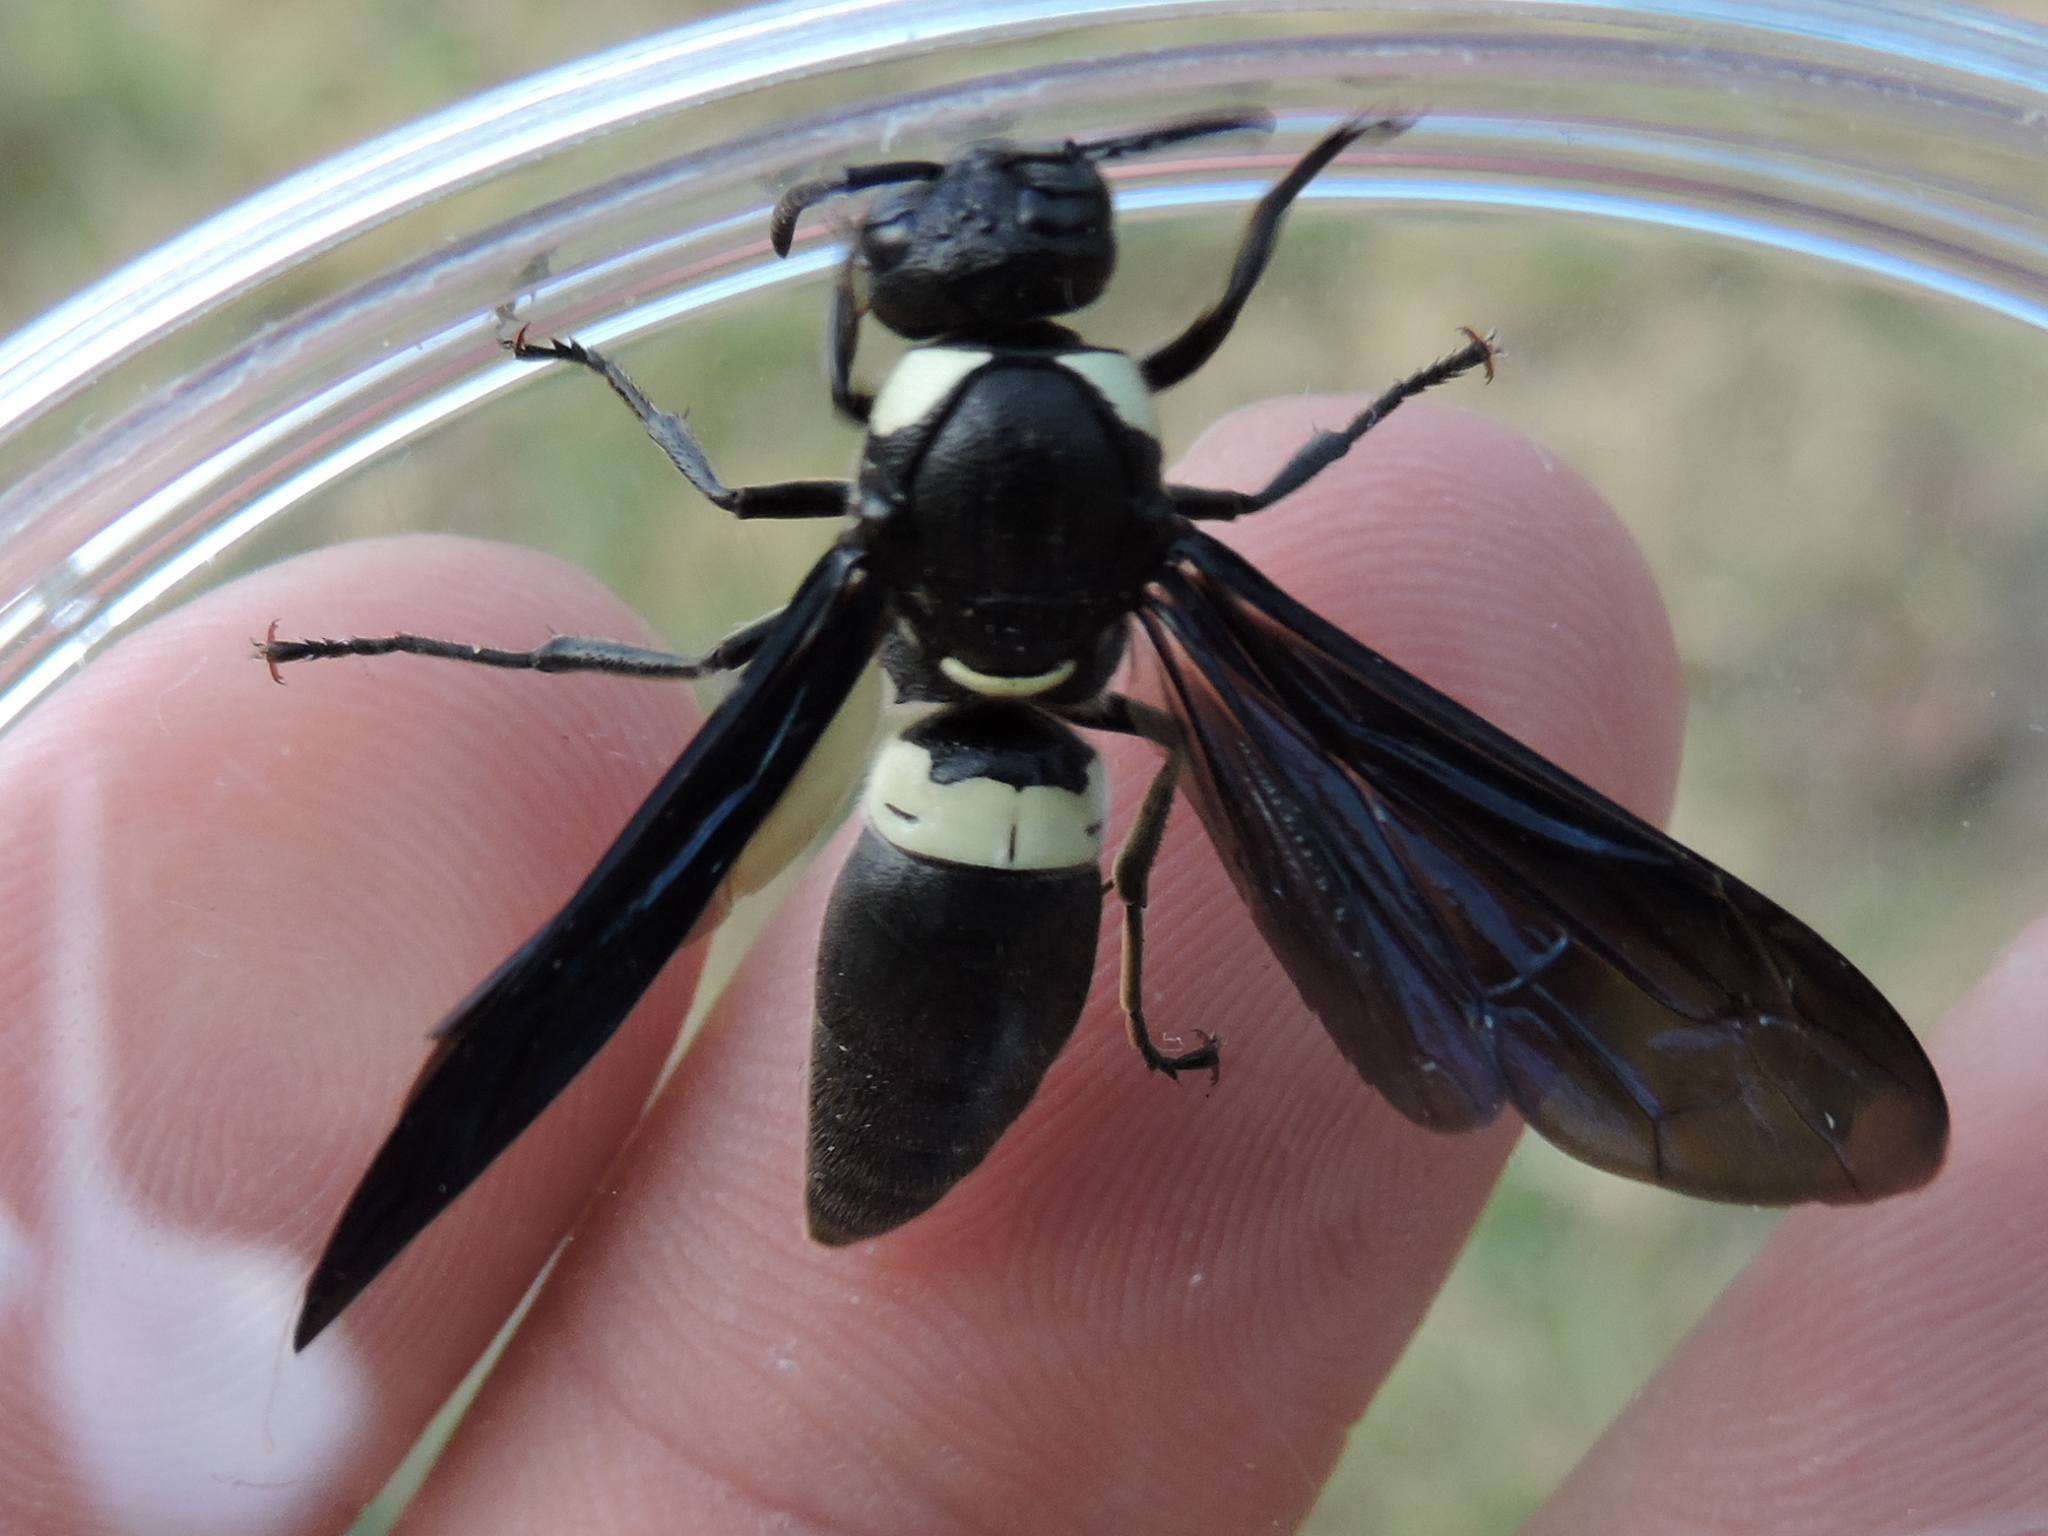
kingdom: Animalia
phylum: Arthropoda
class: Insecta
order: Hymenoptera
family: Eumenidae
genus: Monobia
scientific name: Monobia quadridens
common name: Four-toothed mason wasp
